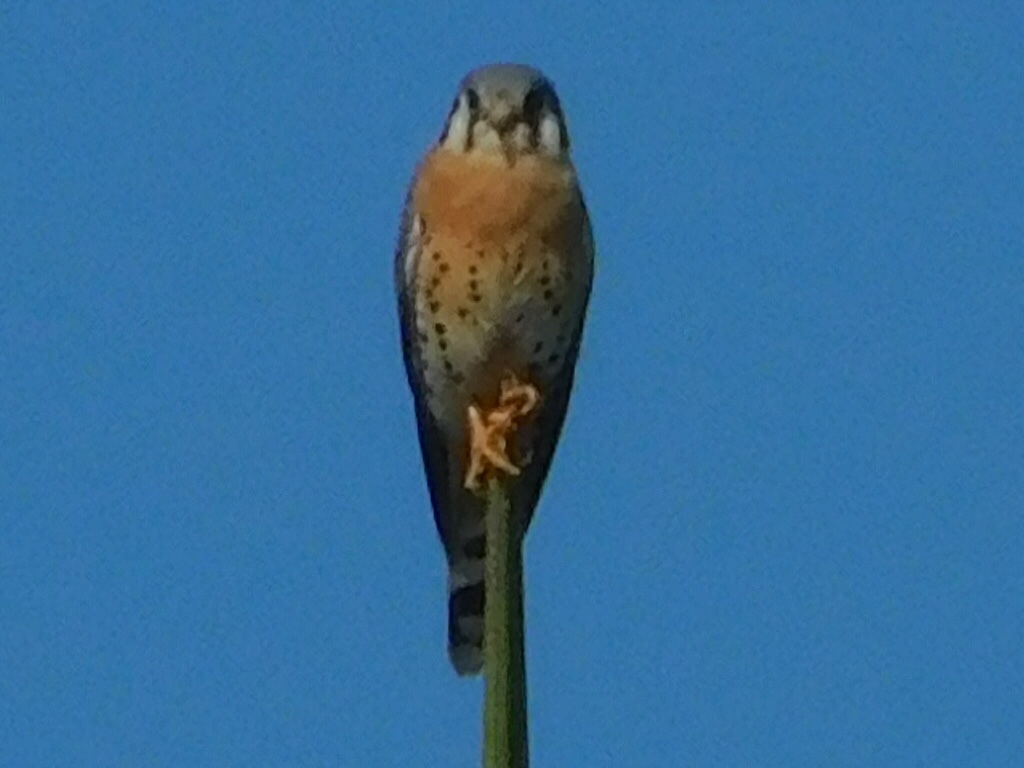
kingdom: Animalia
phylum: Chordata
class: Aves
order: Falconiformes
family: Falconidae
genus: Falco
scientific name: Falco sparverius
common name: American kestrel
